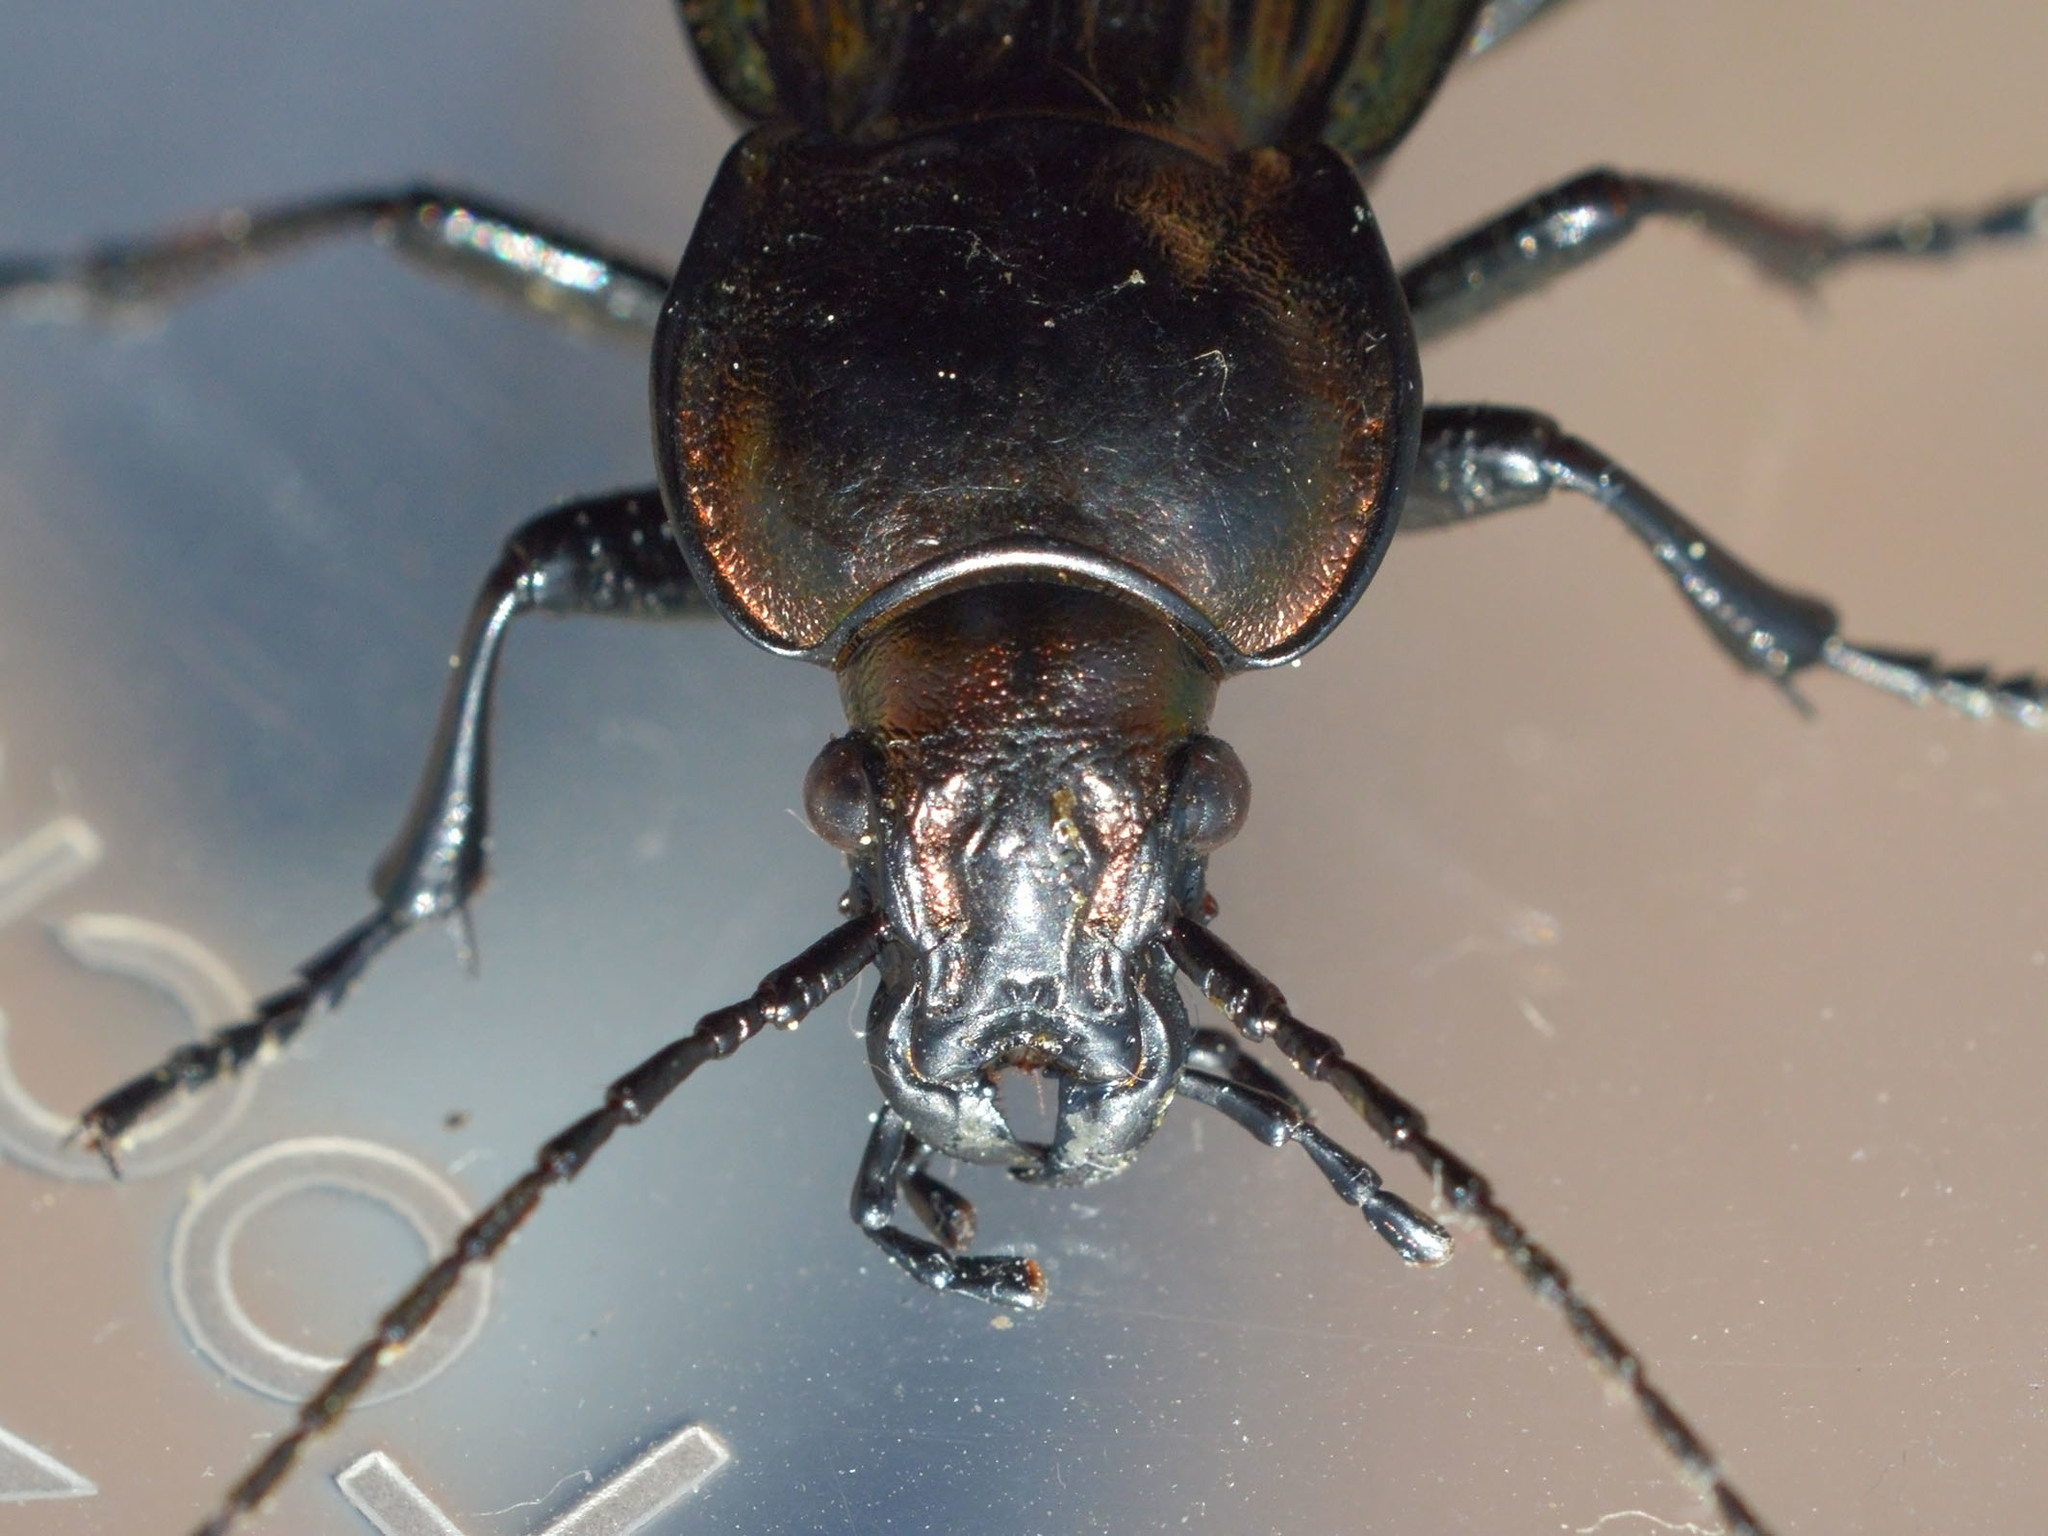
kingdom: Animalia
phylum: Arthropoda
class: Insecta
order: Coleoptera
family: Carabidae
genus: Carabus
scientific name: Carabus ulrichii
